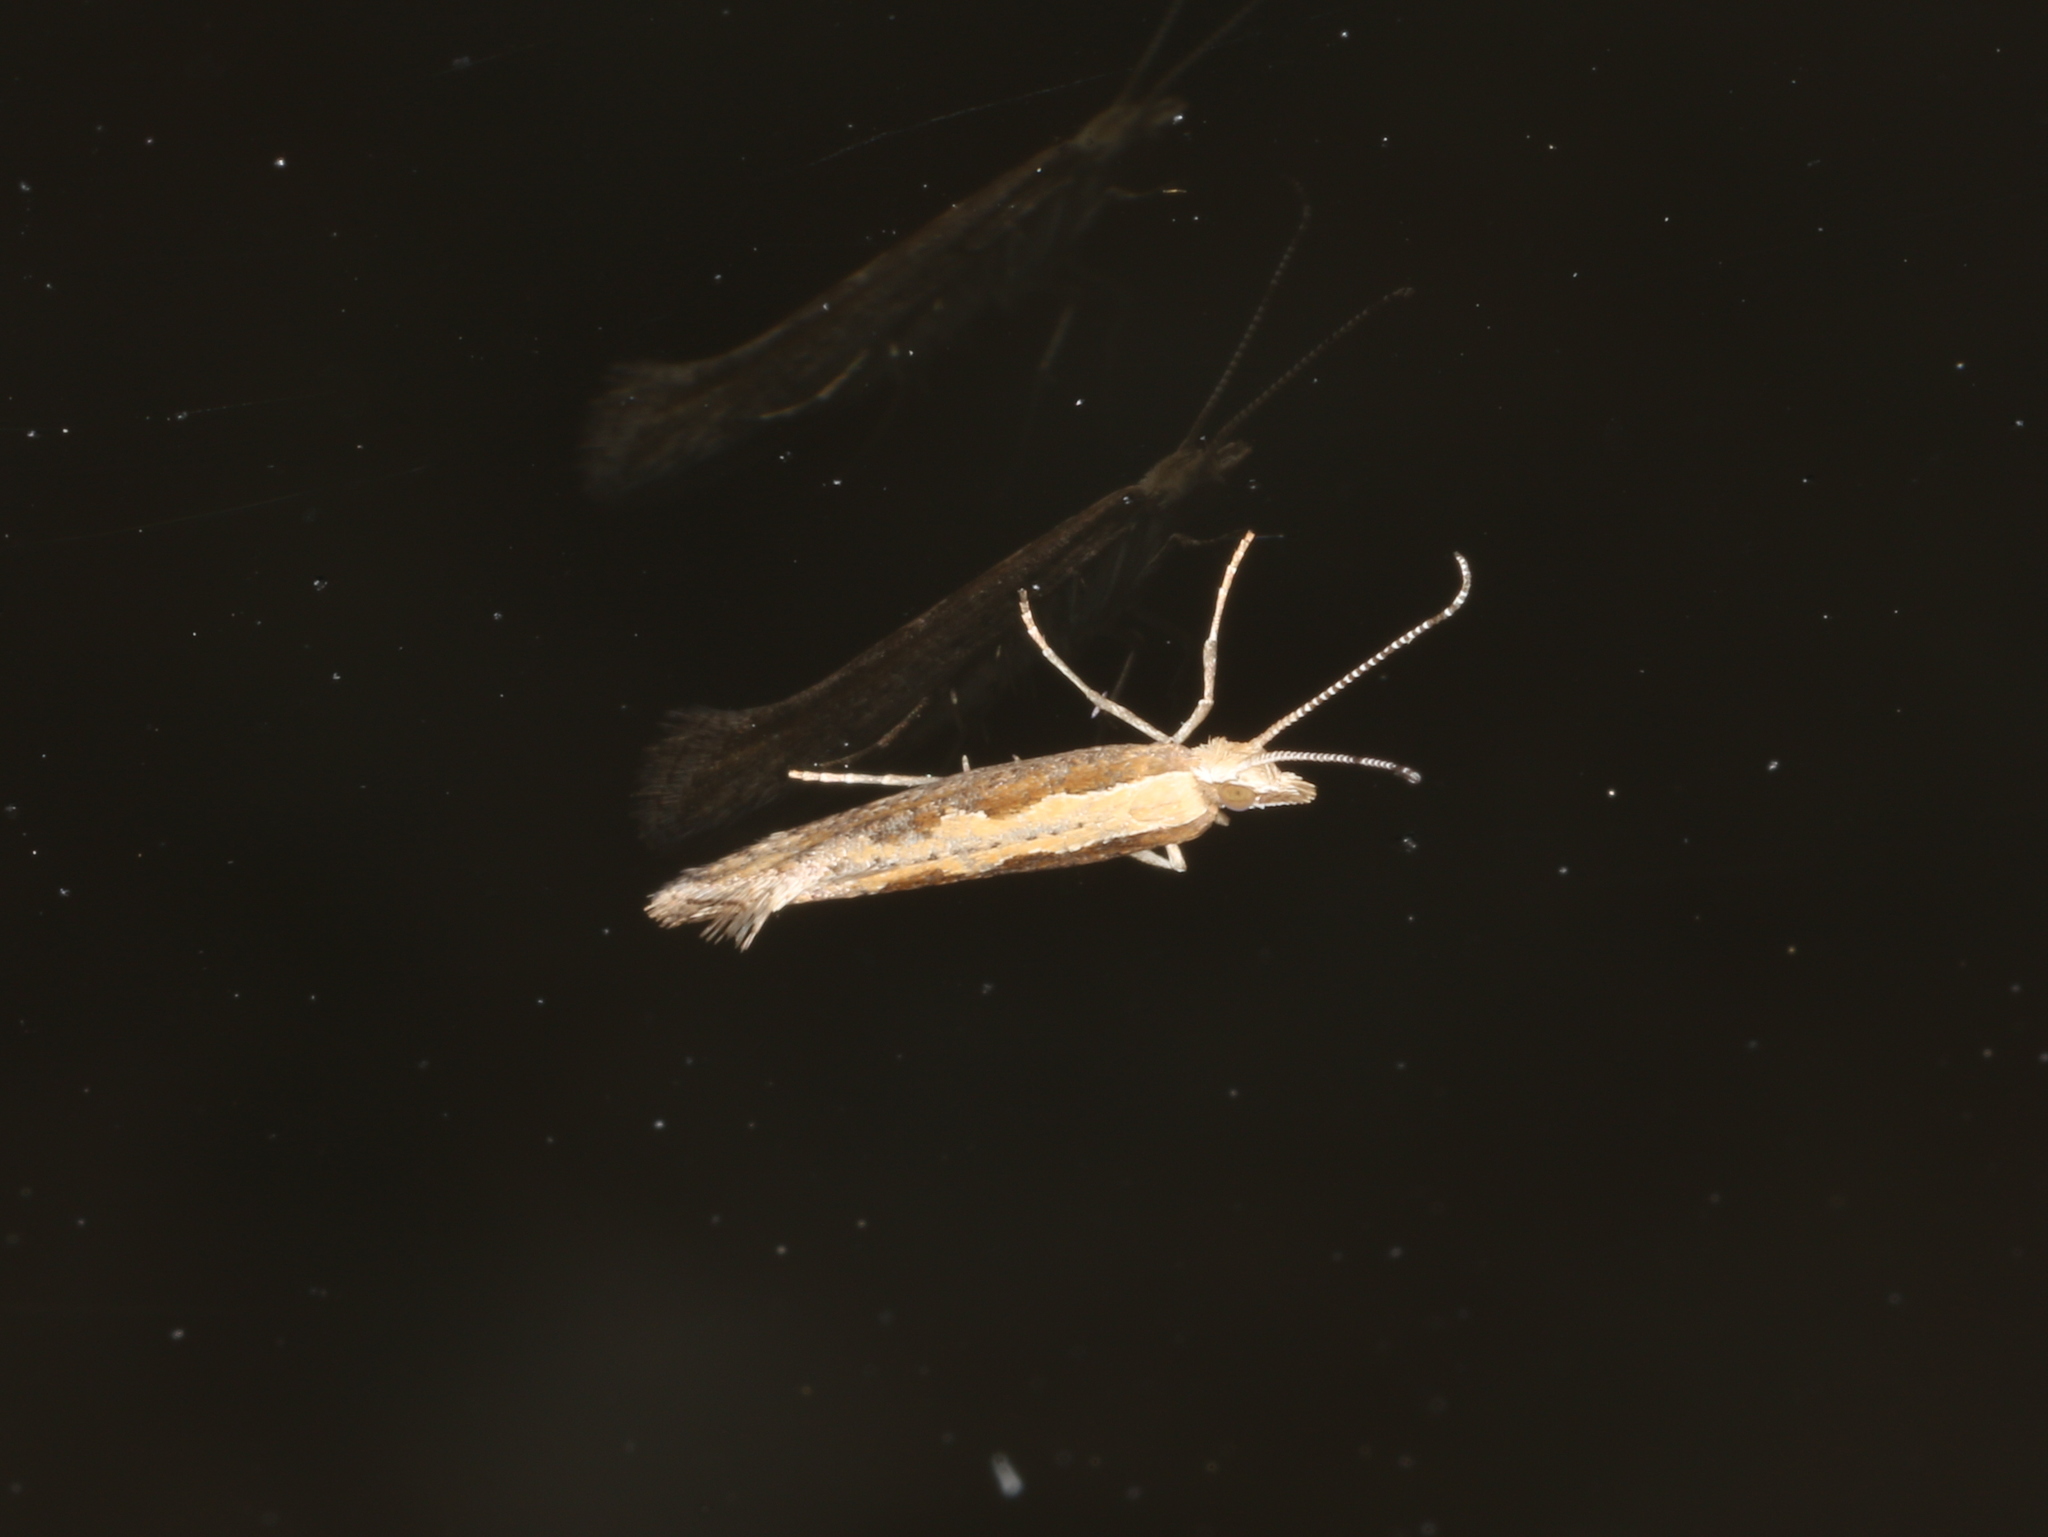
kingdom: Animalia
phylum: Arthropoda
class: Insecta
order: Lepidoptera
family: Plutellidae
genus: Plutella
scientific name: Plutella xylostella
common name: Diamond-back moth
